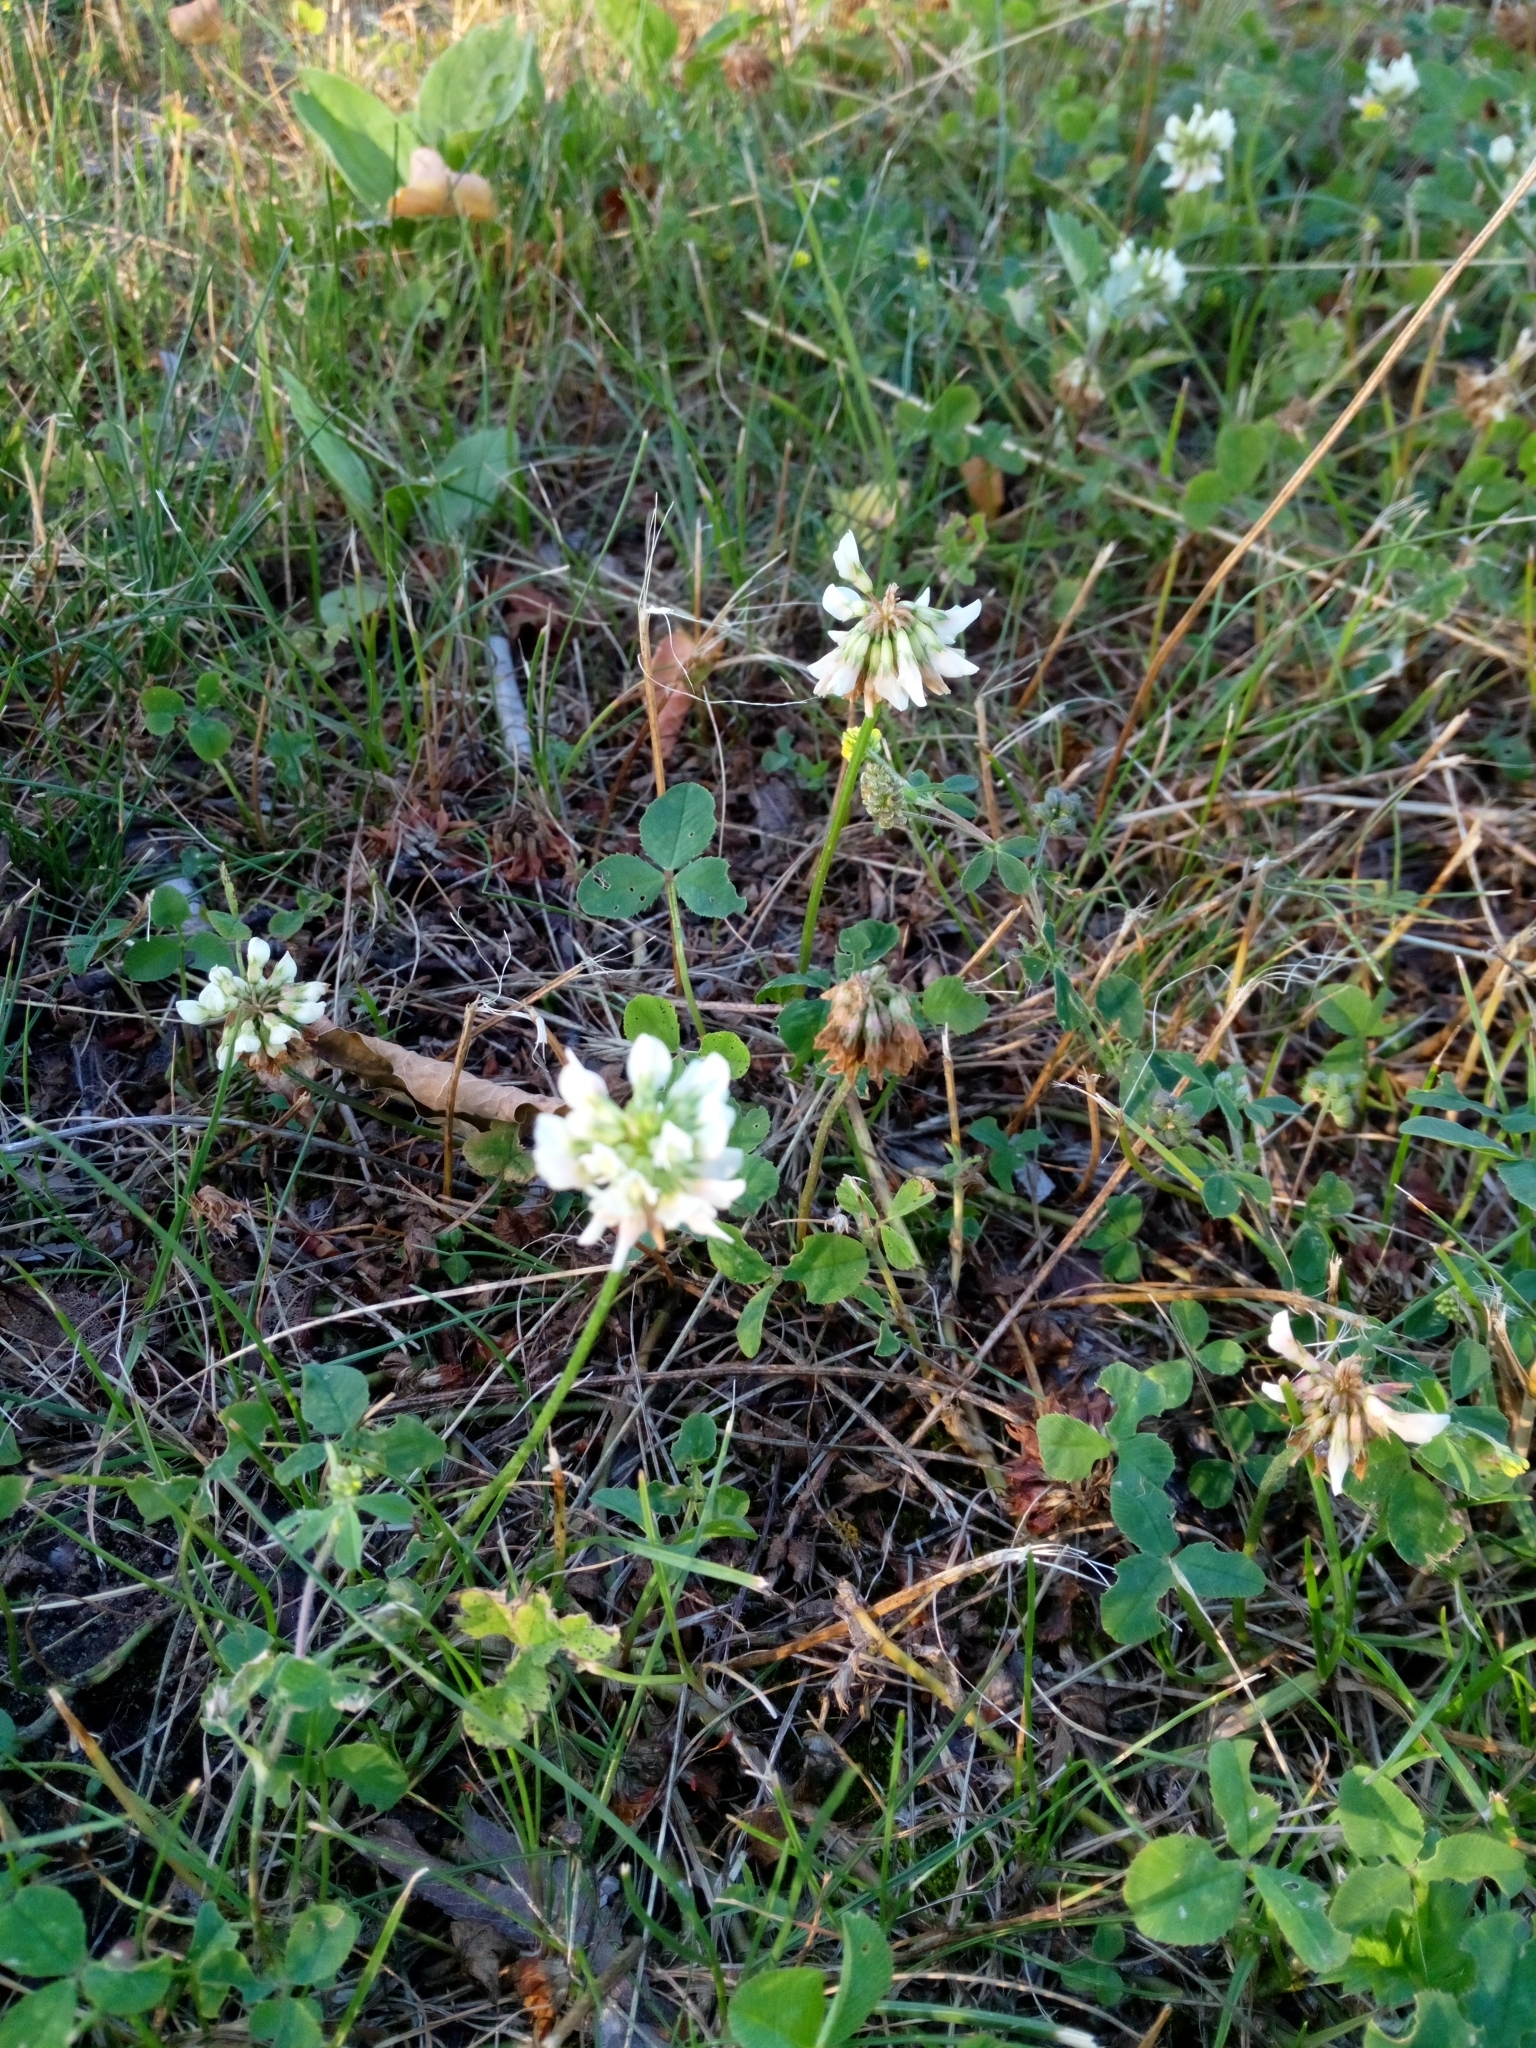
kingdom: Plantae
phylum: Tracheophyta
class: Magnoliopsida
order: Fabales
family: Fabaceae
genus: Trifolium
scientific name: Trifolium repens
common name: White clover
